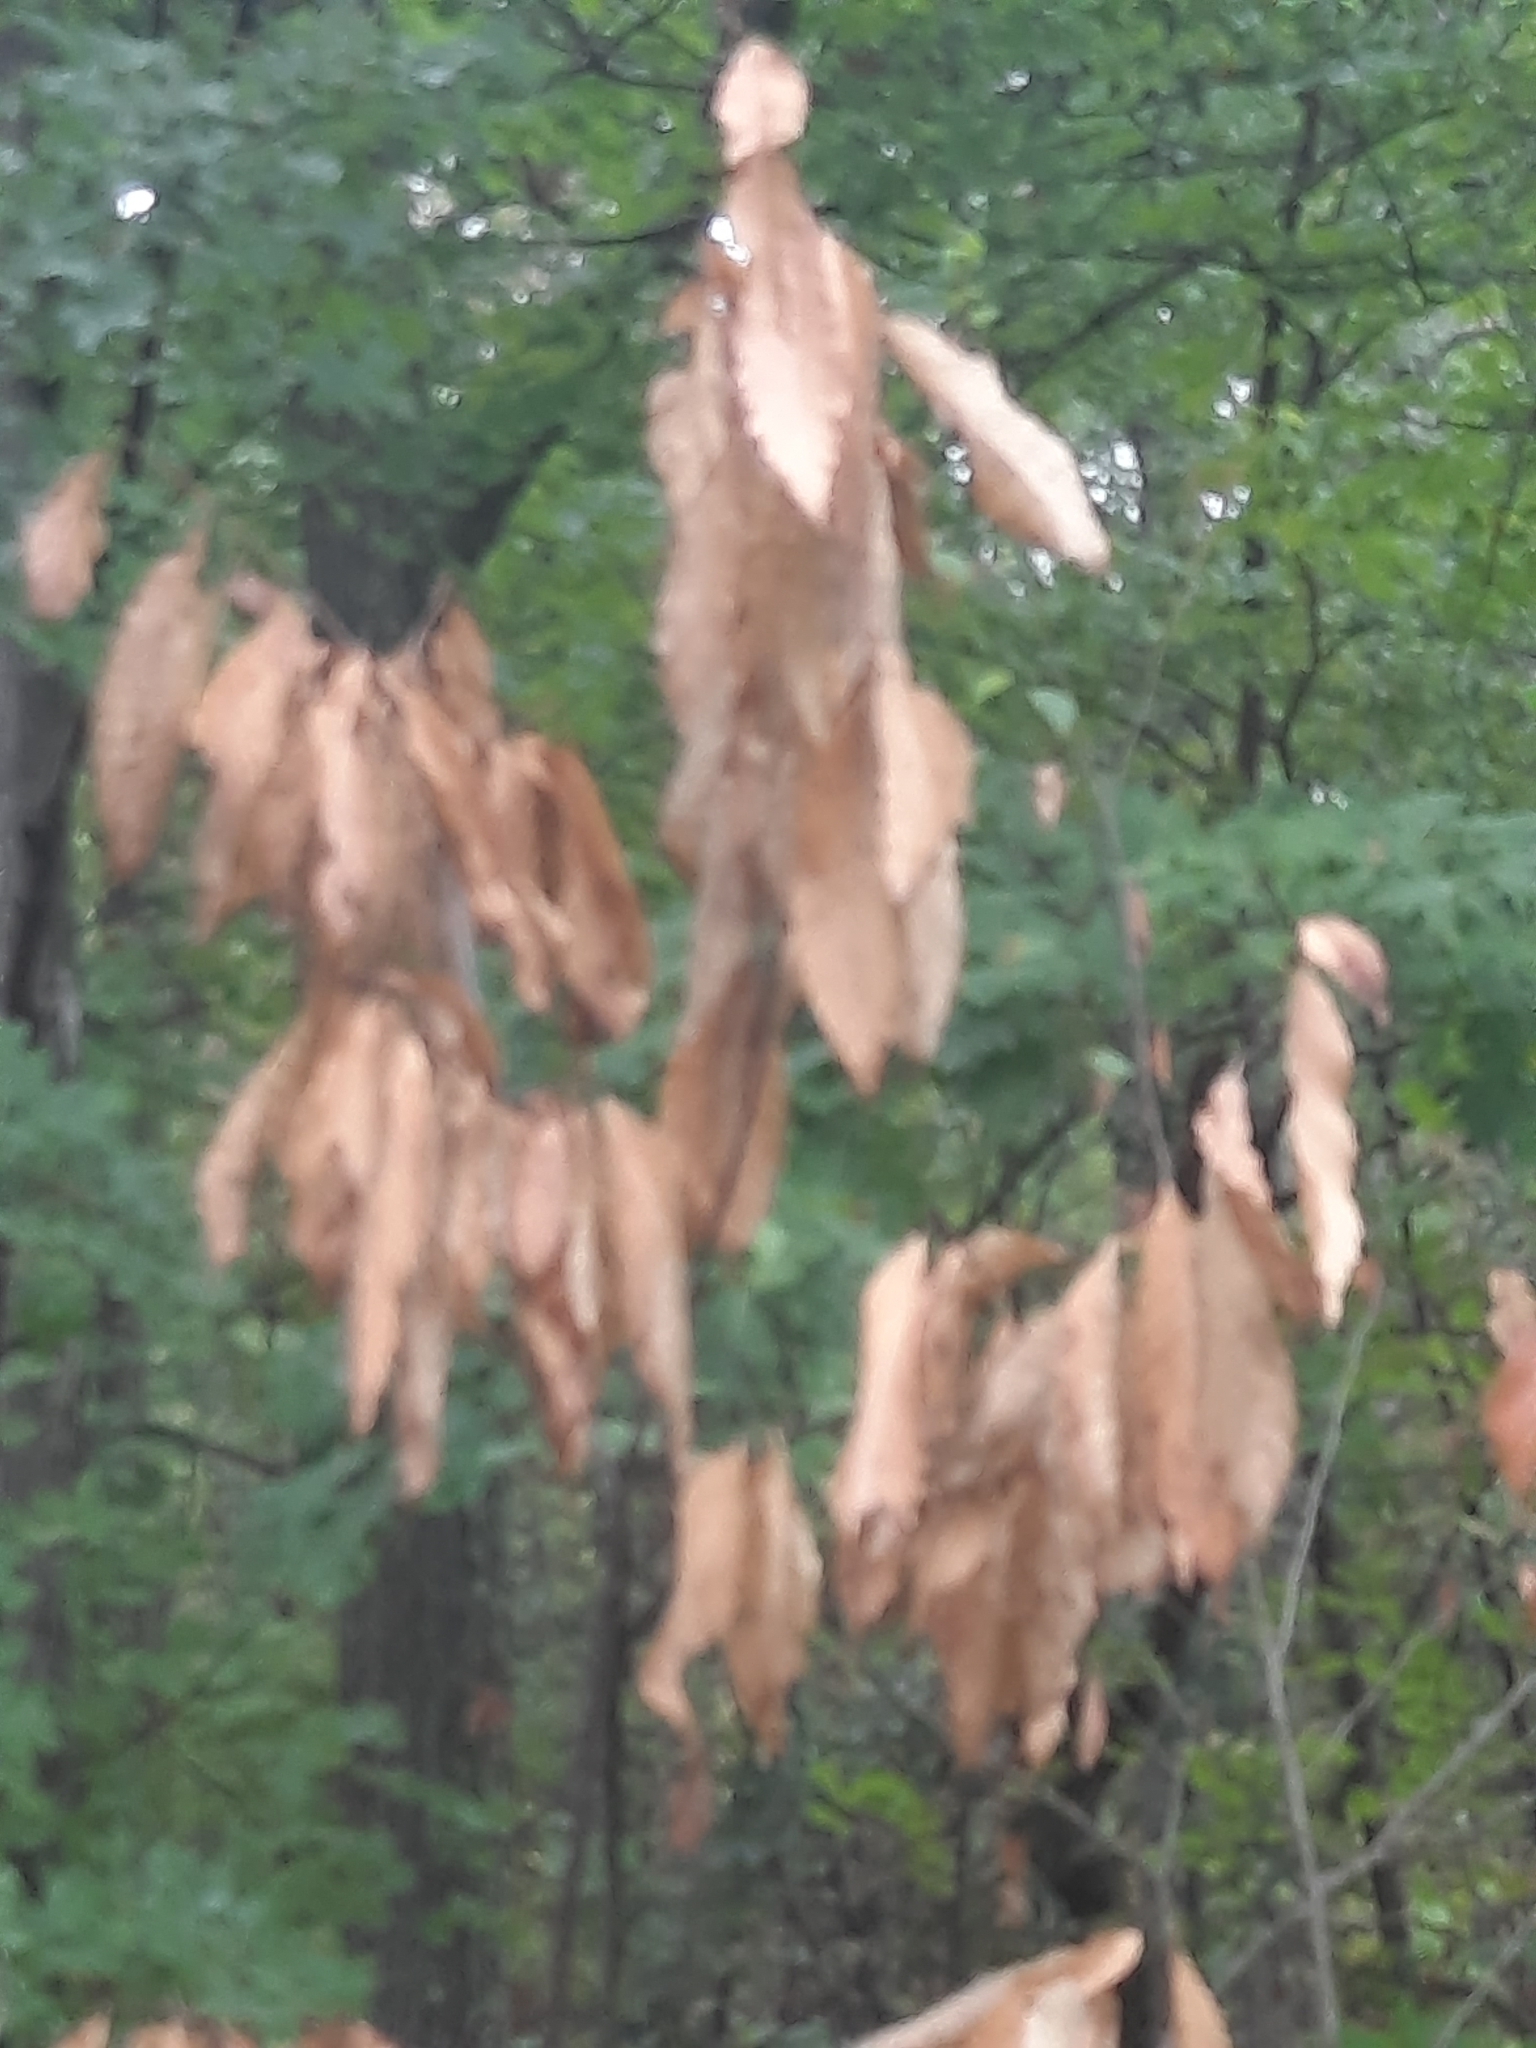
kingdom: Plantae
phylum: Tracheophyta
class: Magnoliopsida
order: Fagales
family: Fagaceae
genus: Fagus
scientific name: Fagus grandifolia
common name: American beech
